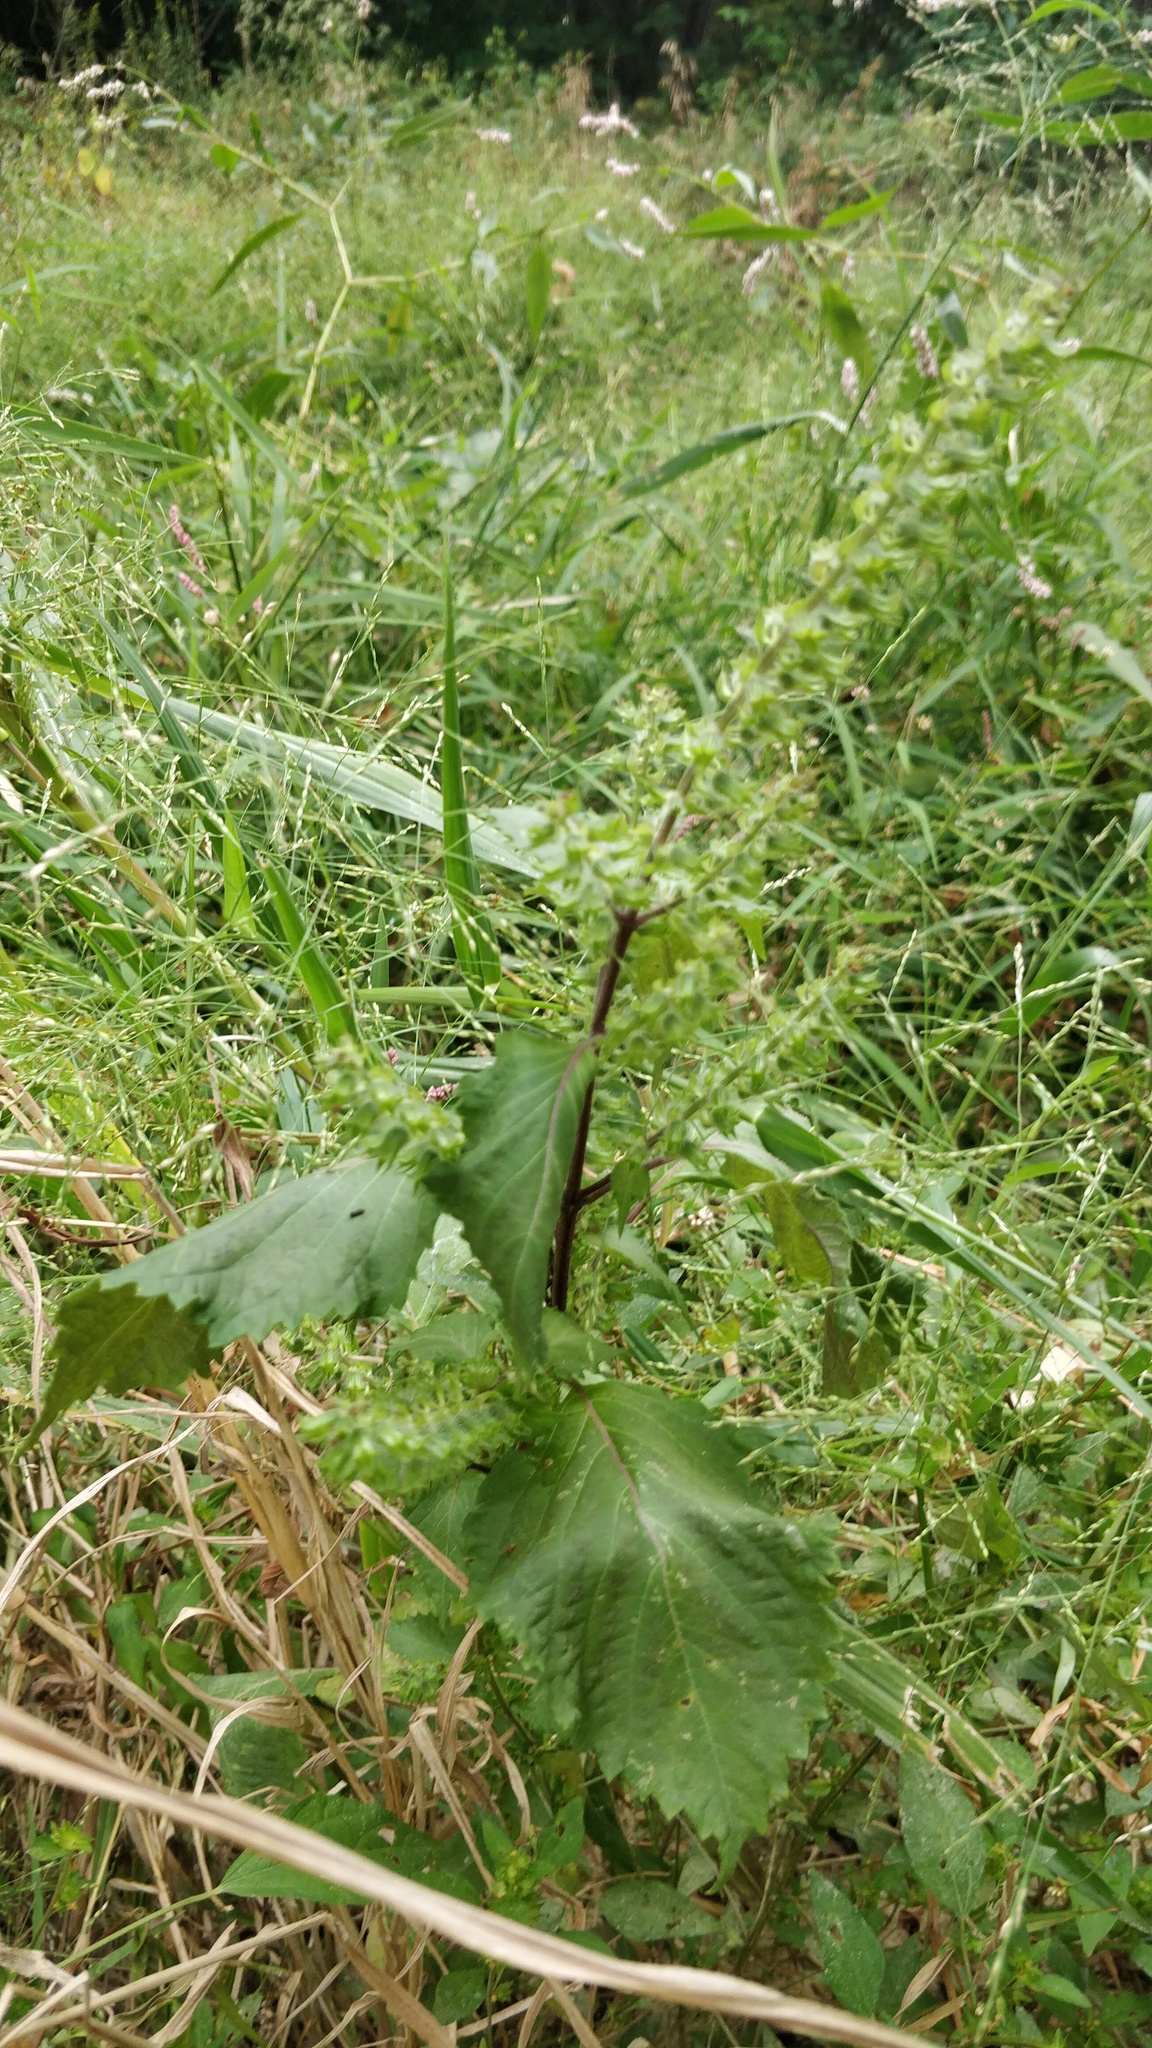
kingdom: Plantae
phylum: Tracheophyta
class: Magnoliopsida
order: Lamiales
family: Lamiaceae
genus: Perilla
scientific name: Perilla frutescens
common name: Perilla
